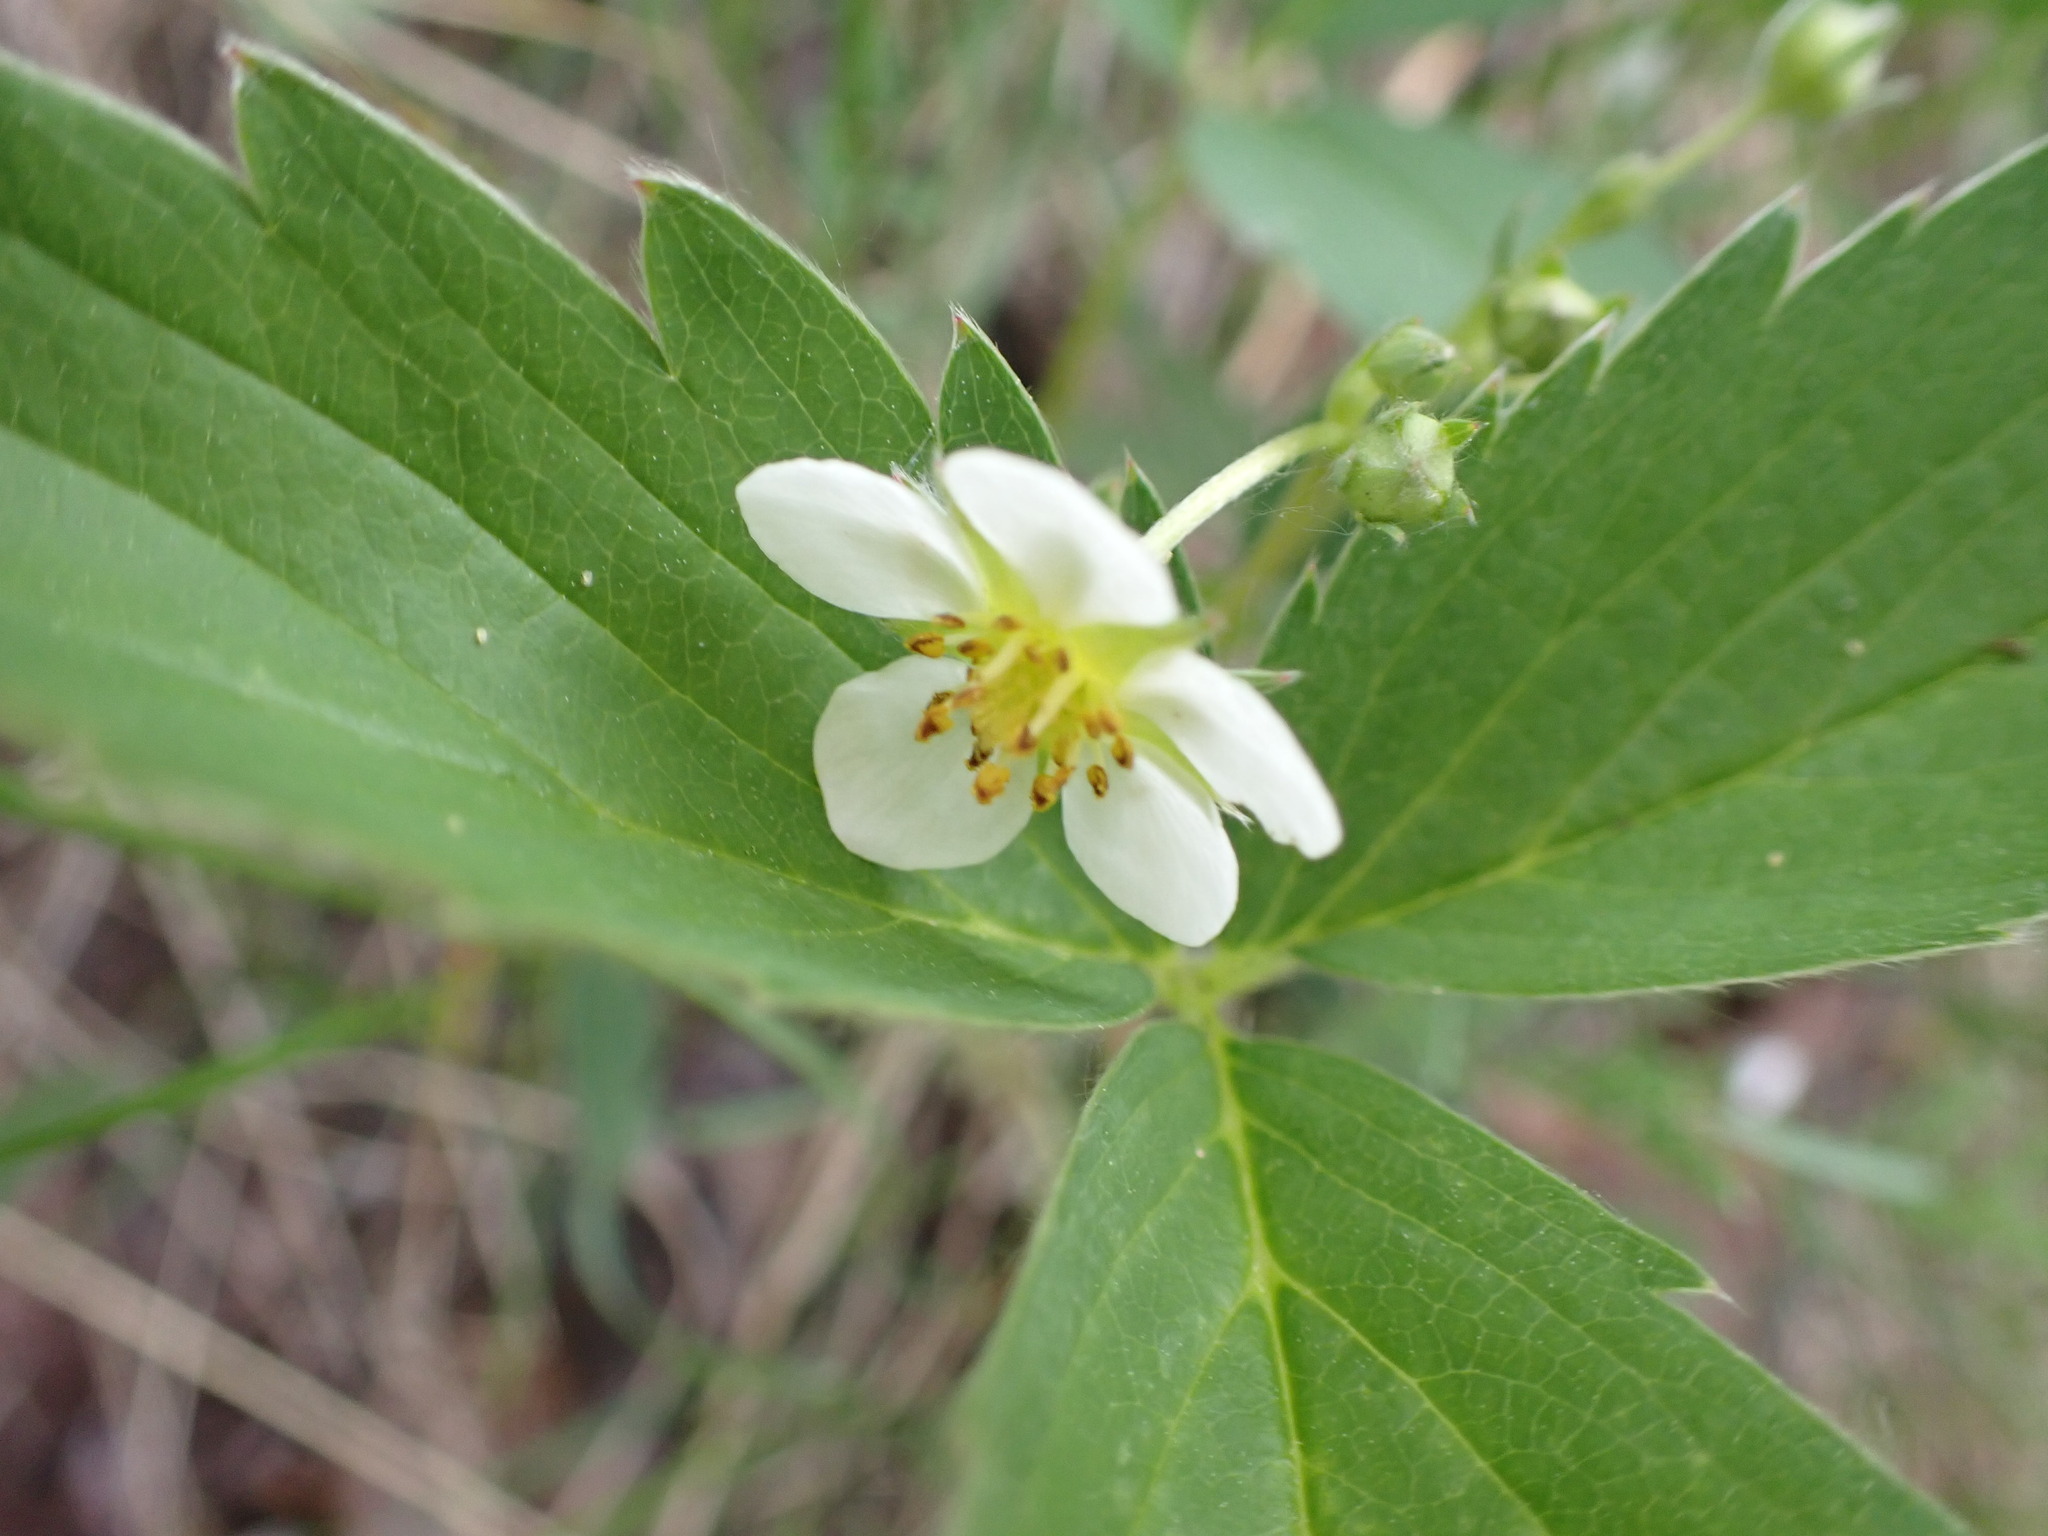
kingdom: Plantae
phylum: Tracheophyta
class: Magnoliopsida
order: Rosales
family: Rosaceae
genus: Fragaria
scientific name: Fragaria virginiana
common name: Thickleaved wild strawberry
